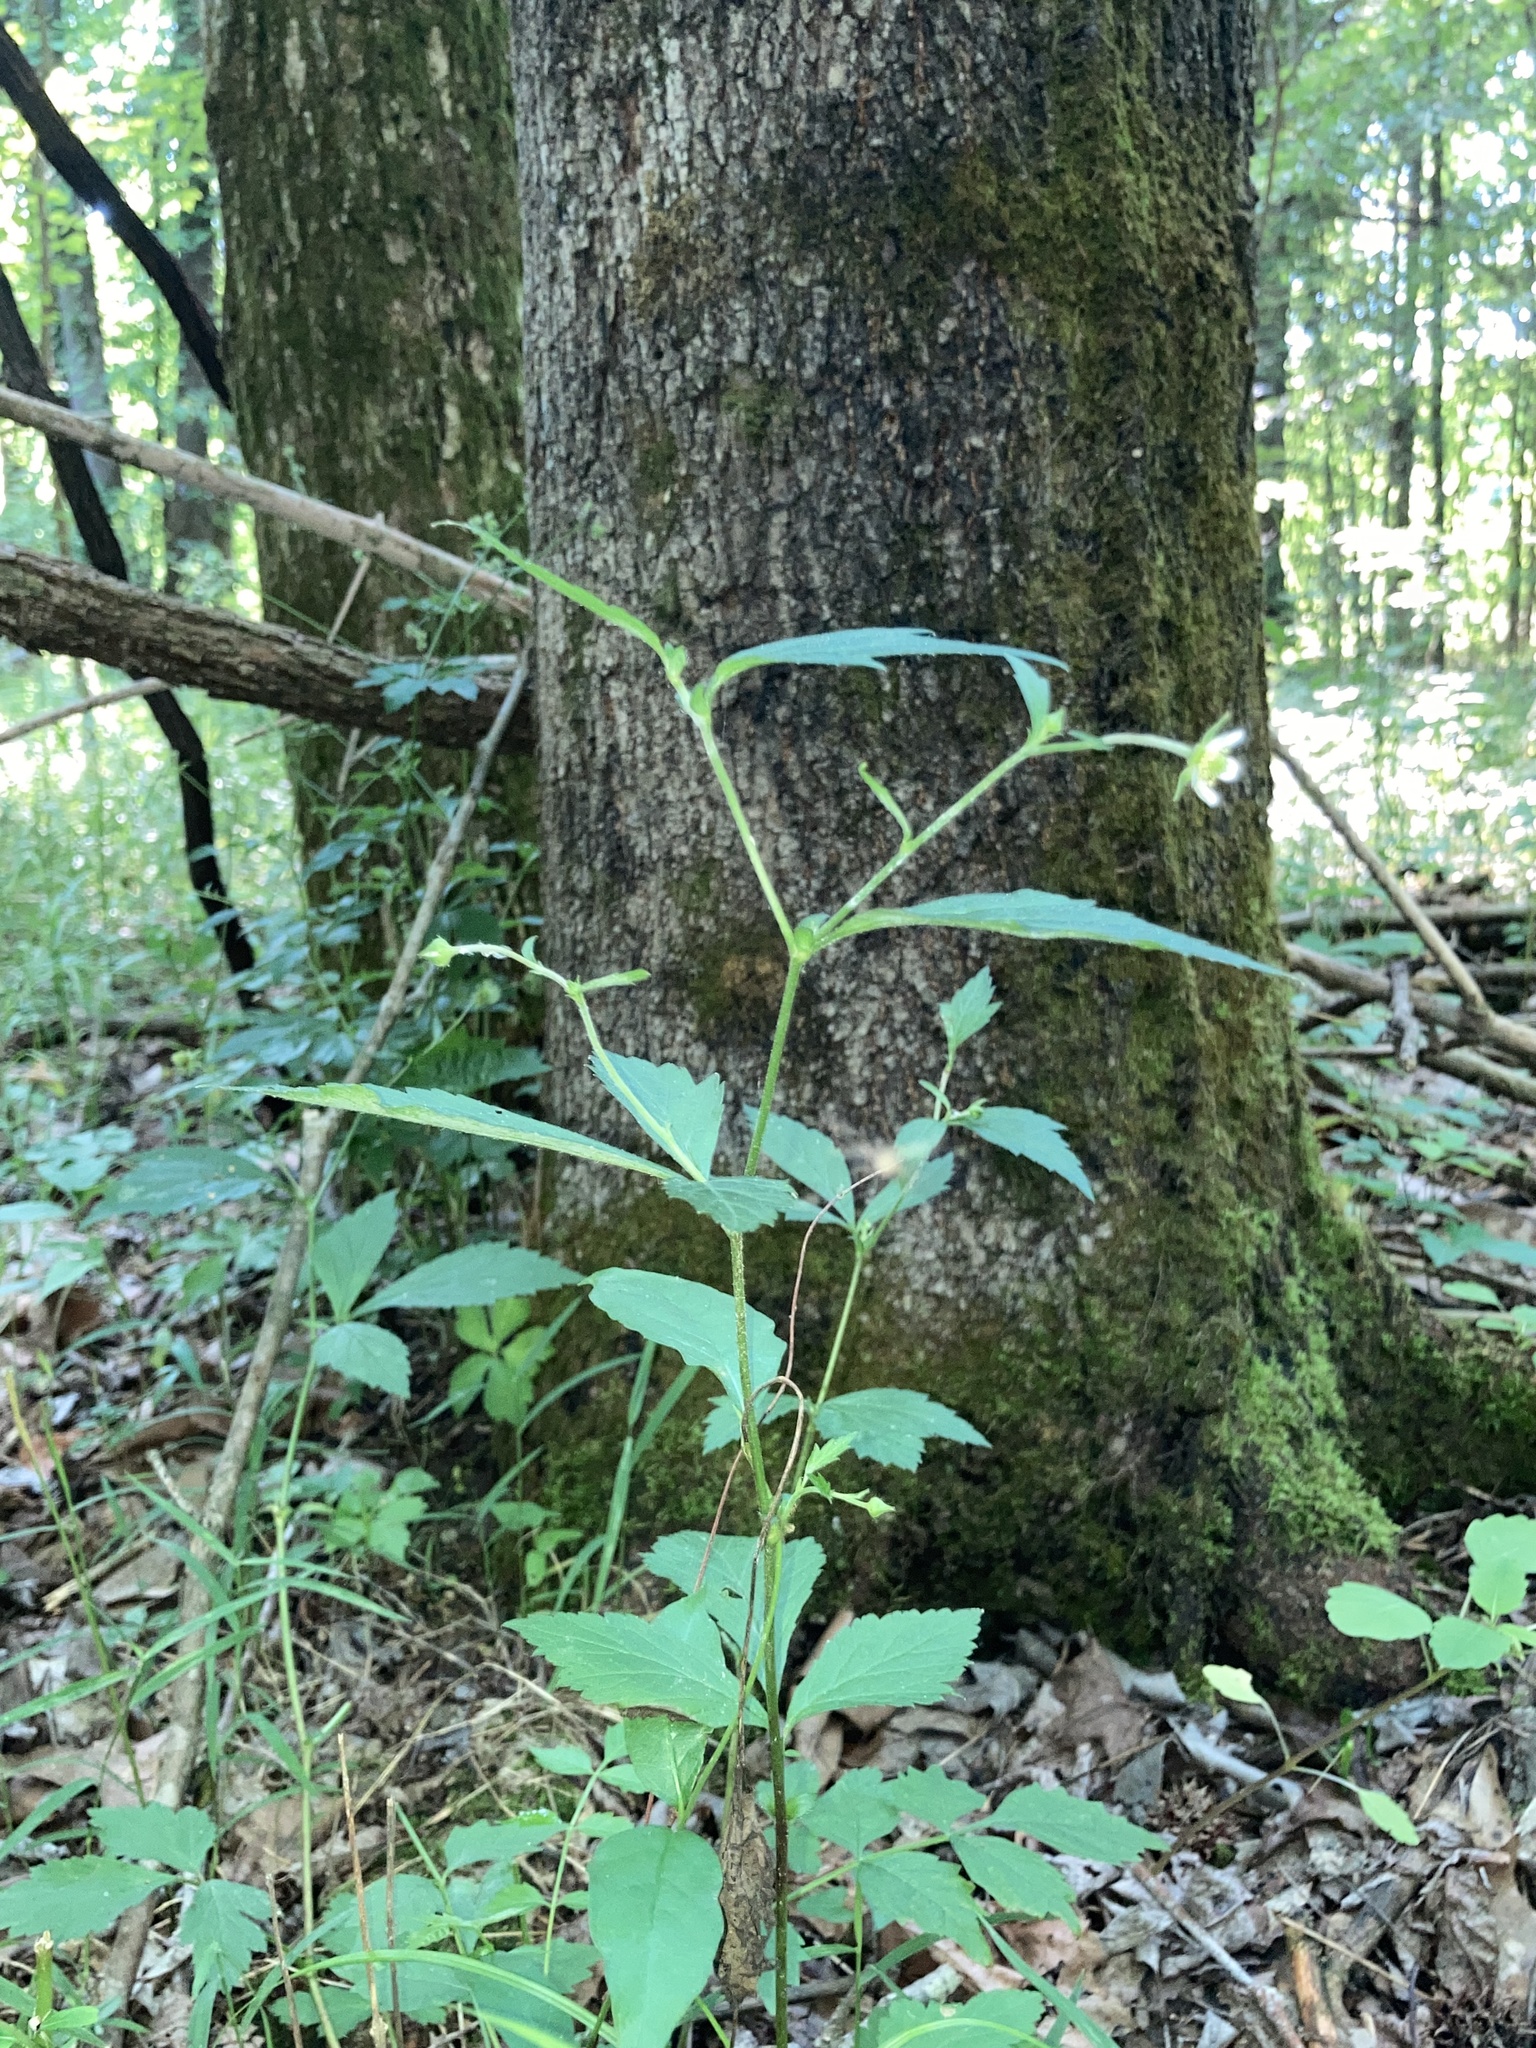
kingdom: Plantae
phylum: Tracheophyta
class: Magnoliopsida
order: Rosales
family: Rosaceae
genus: Geum
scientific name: Geum canadense
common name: White avens
